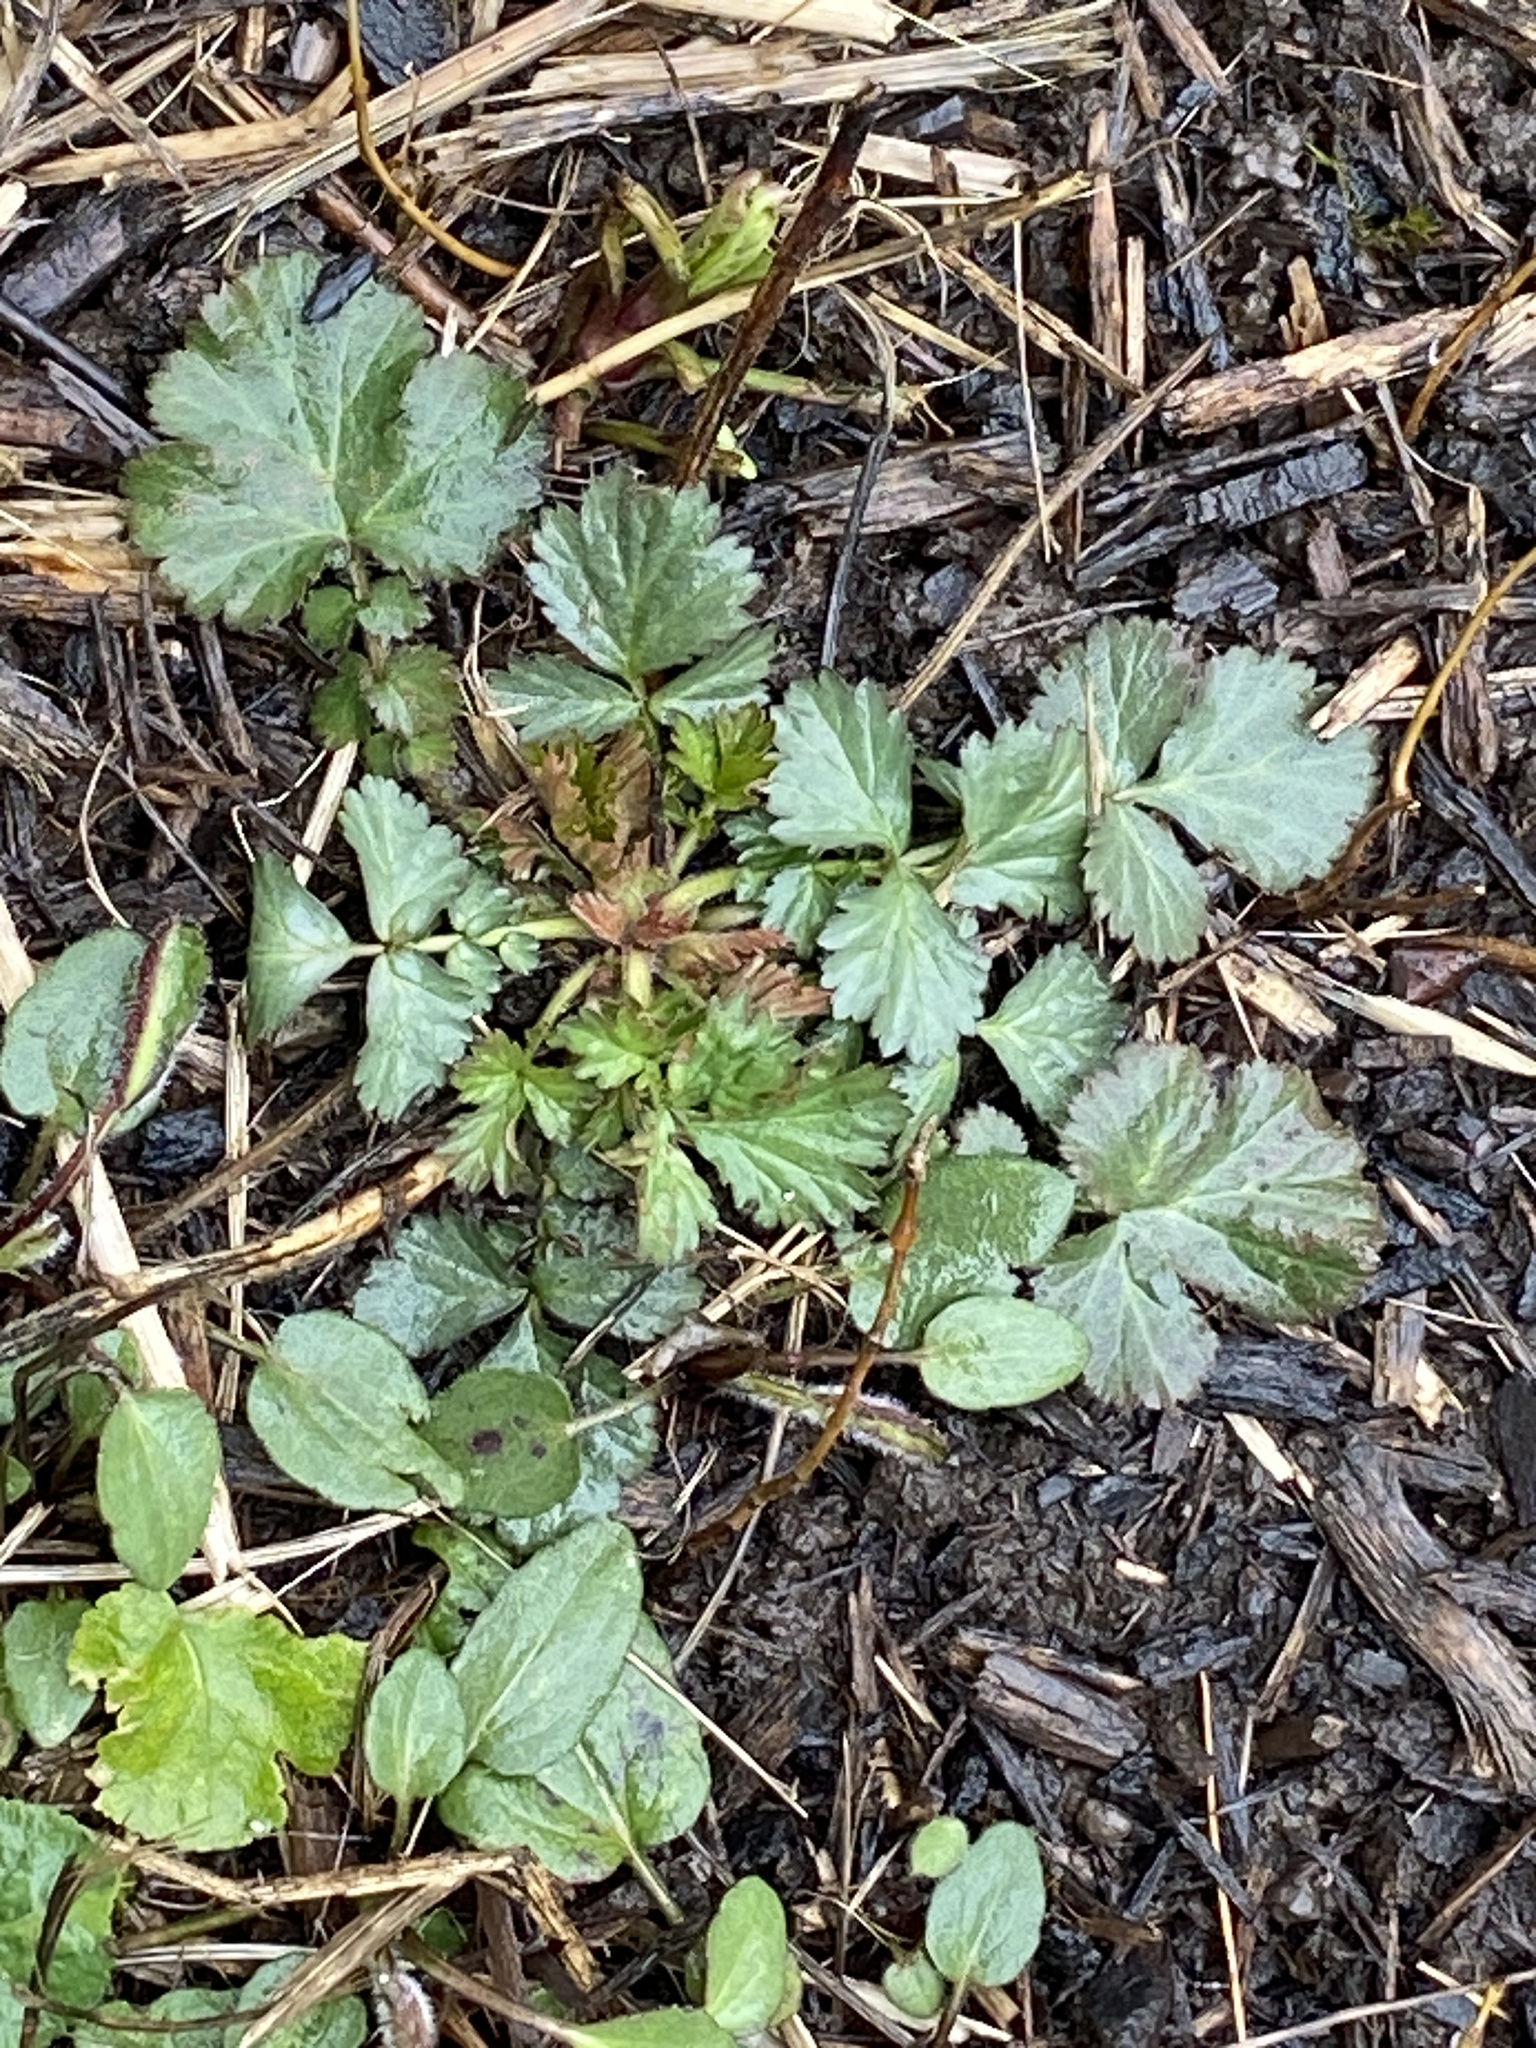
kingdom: Plantae
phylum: Tracheophyta
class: Magnoliopsida
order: Rosales
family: Rosaceae
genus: Geum
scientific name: Geum canadense
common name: White avens
